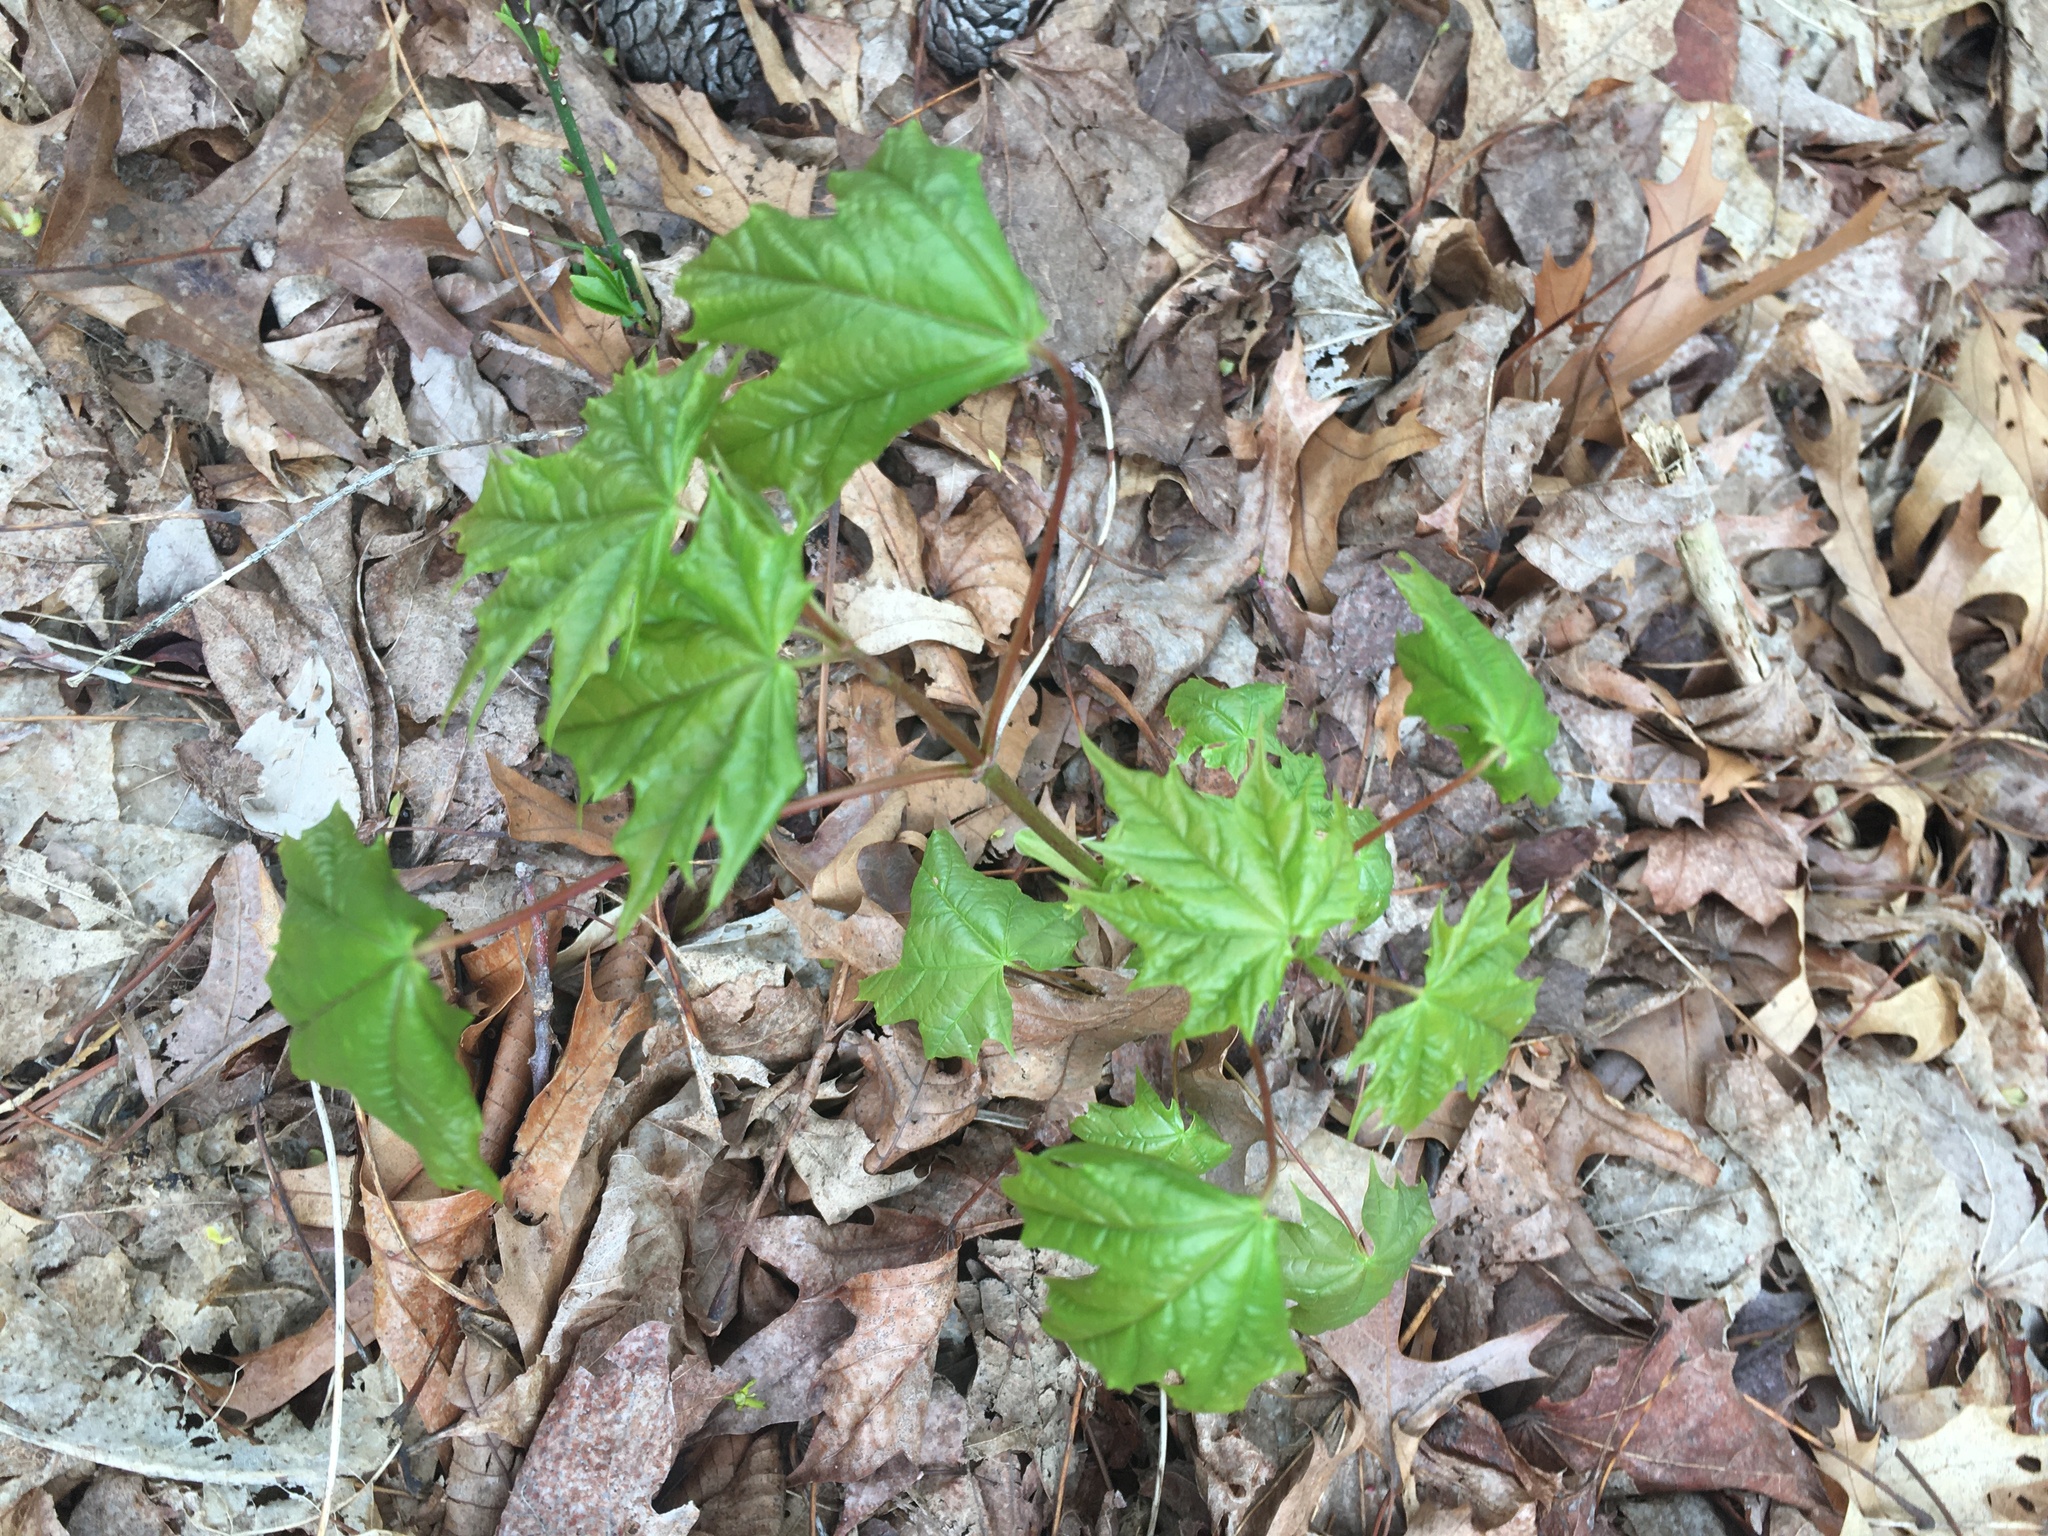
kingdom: Plantae
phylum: Tracheophyta
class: Magnoliopsida
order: Sapindales
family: Sapindaceae
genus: Acer
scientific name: Acer platanoides
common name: Norway maple
